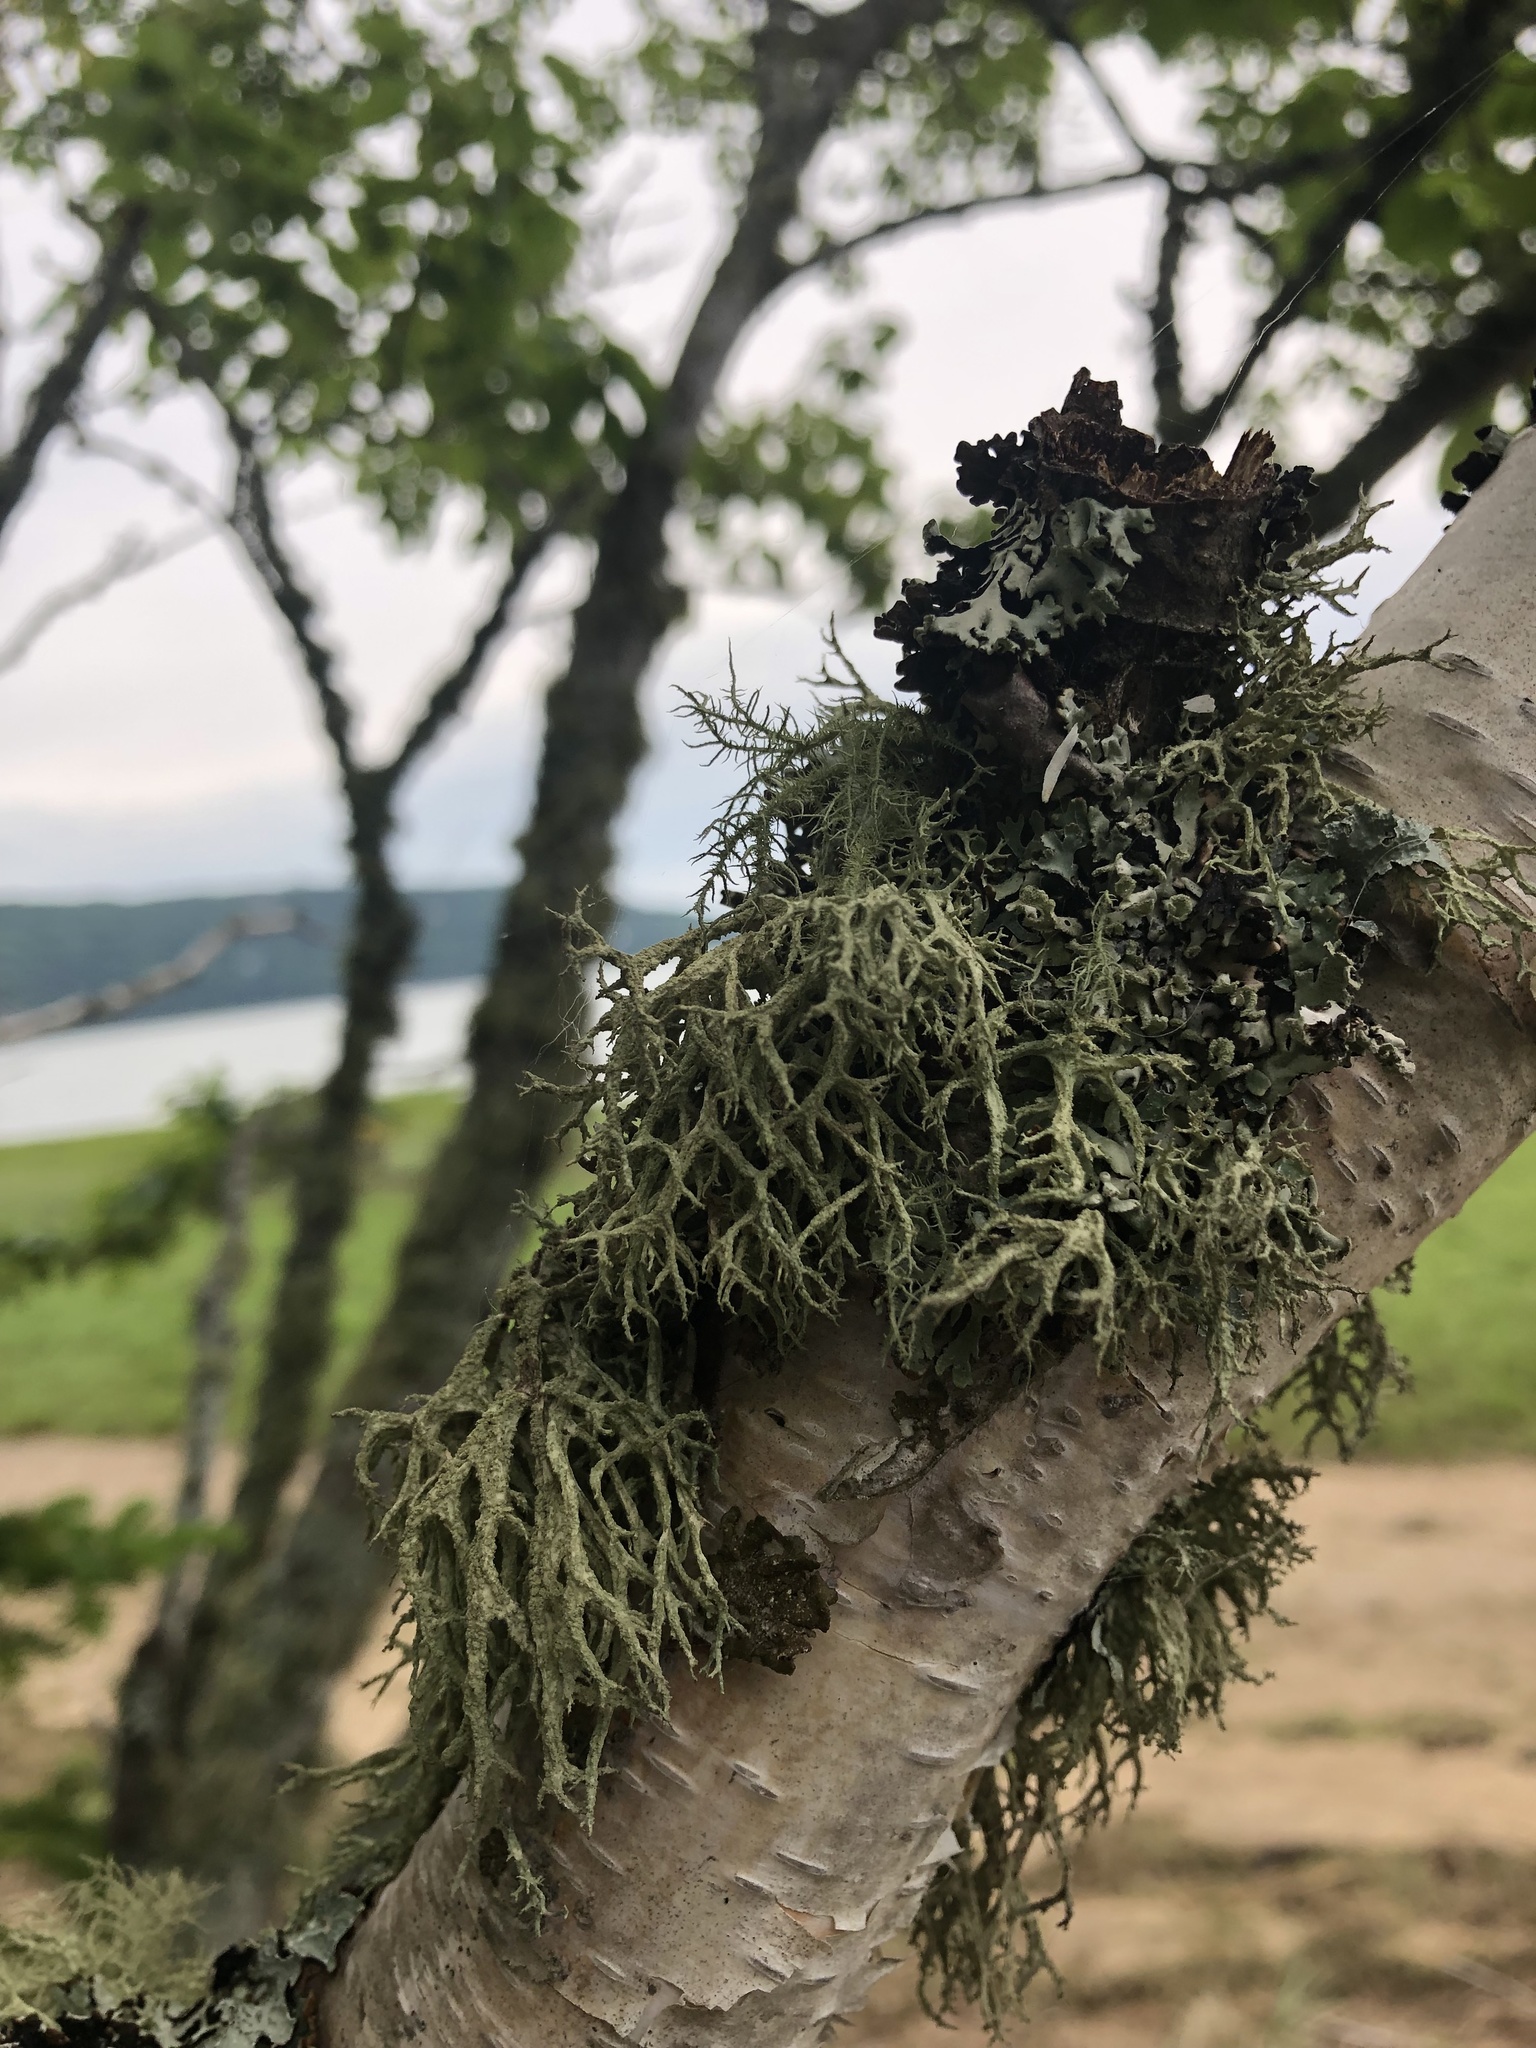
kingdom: Fungi
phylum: Ascomycota
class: Lecanoromycetes
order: Lecanorales
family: Parmeliaceae
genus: Evernia
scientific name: Evernia mesomorpha
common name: Boreal oak moss lichen
